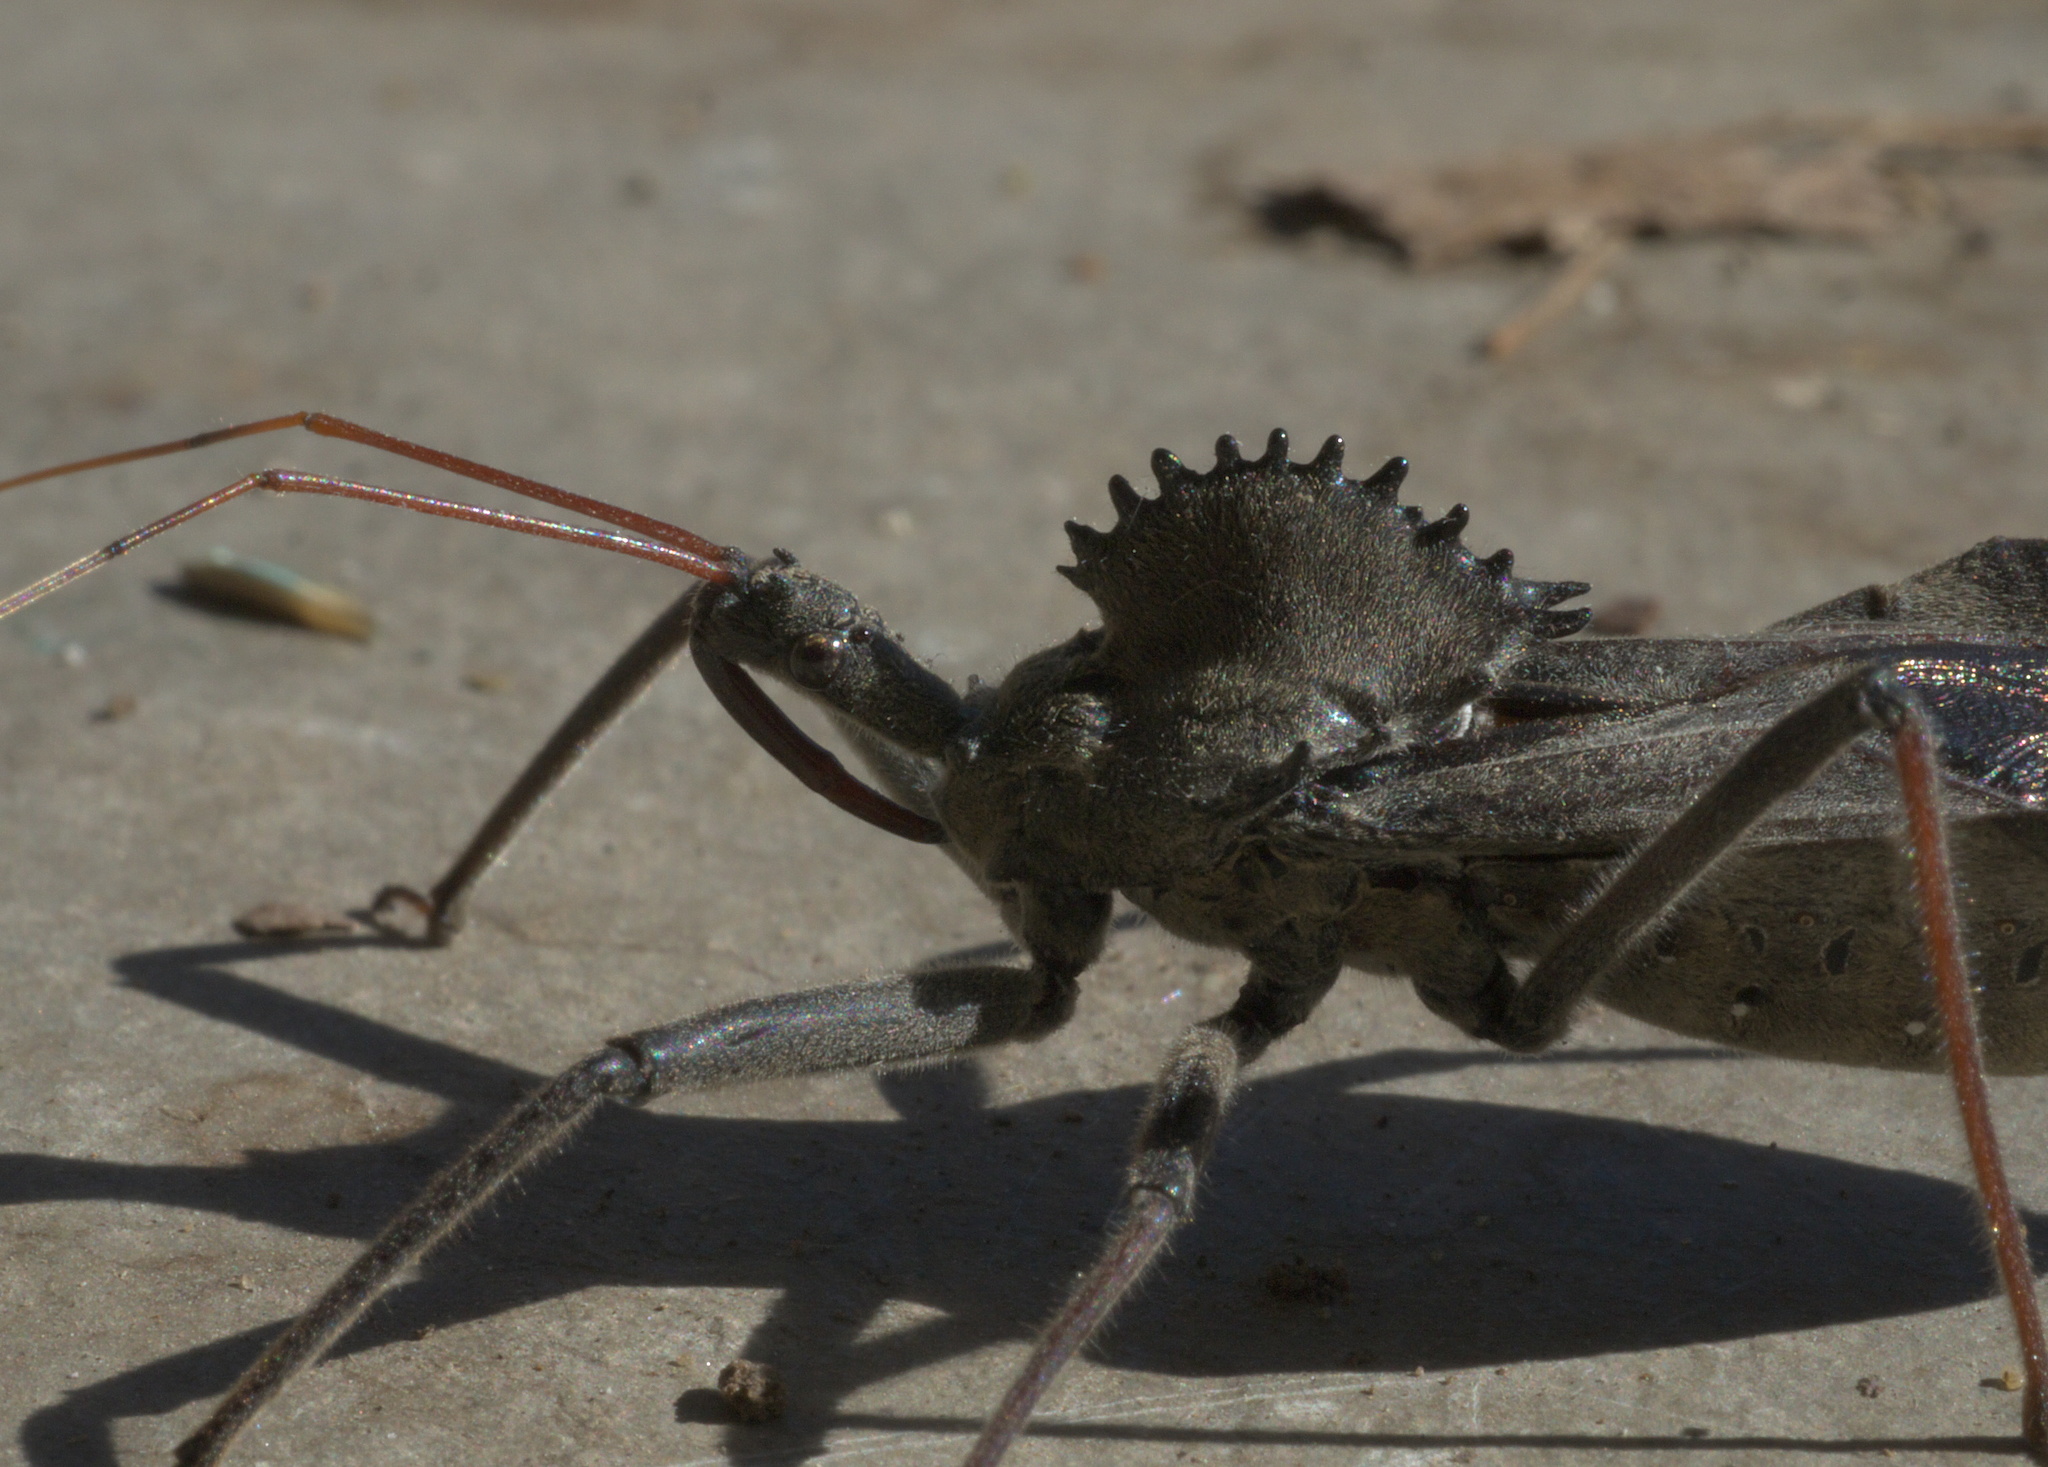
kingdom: Animalia
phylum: Arthropoda
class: Insecta
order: Hemiptera
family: Reduviidae
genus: Arilus
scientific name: Arilus cristatus
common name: North american wheel bug
